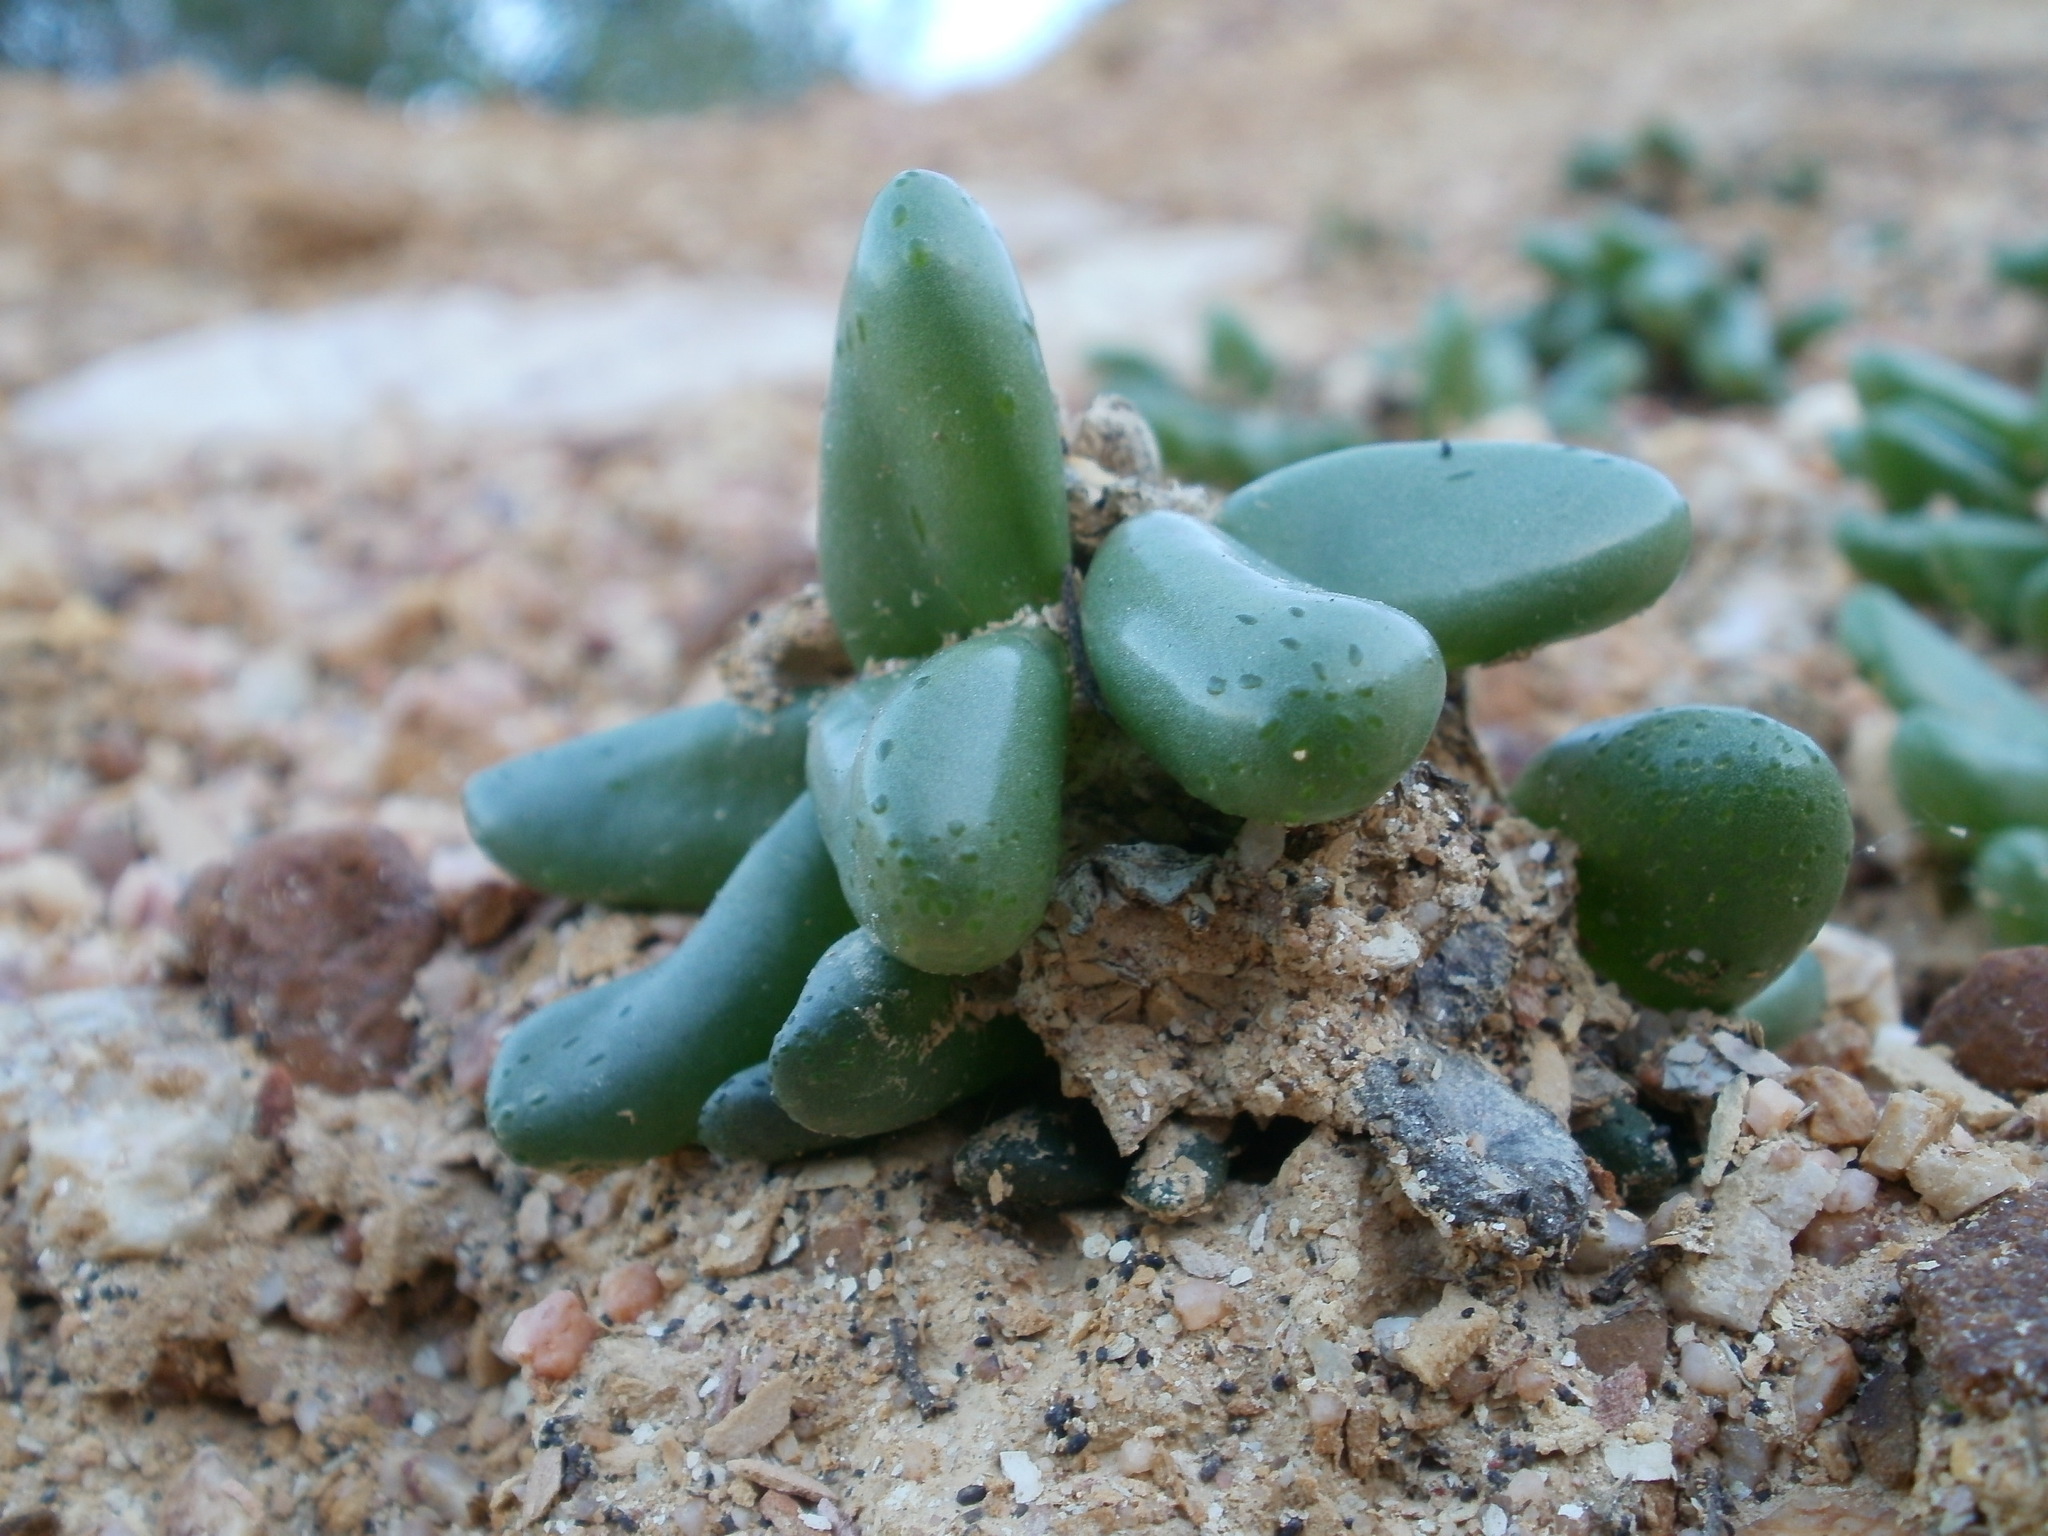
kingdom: Plantae
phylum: Tracheophyta
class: Magnoliopsida
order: Caryophyllales
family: Aizoaceae
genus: Diplosoma
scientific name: Diplosoma retroversum
